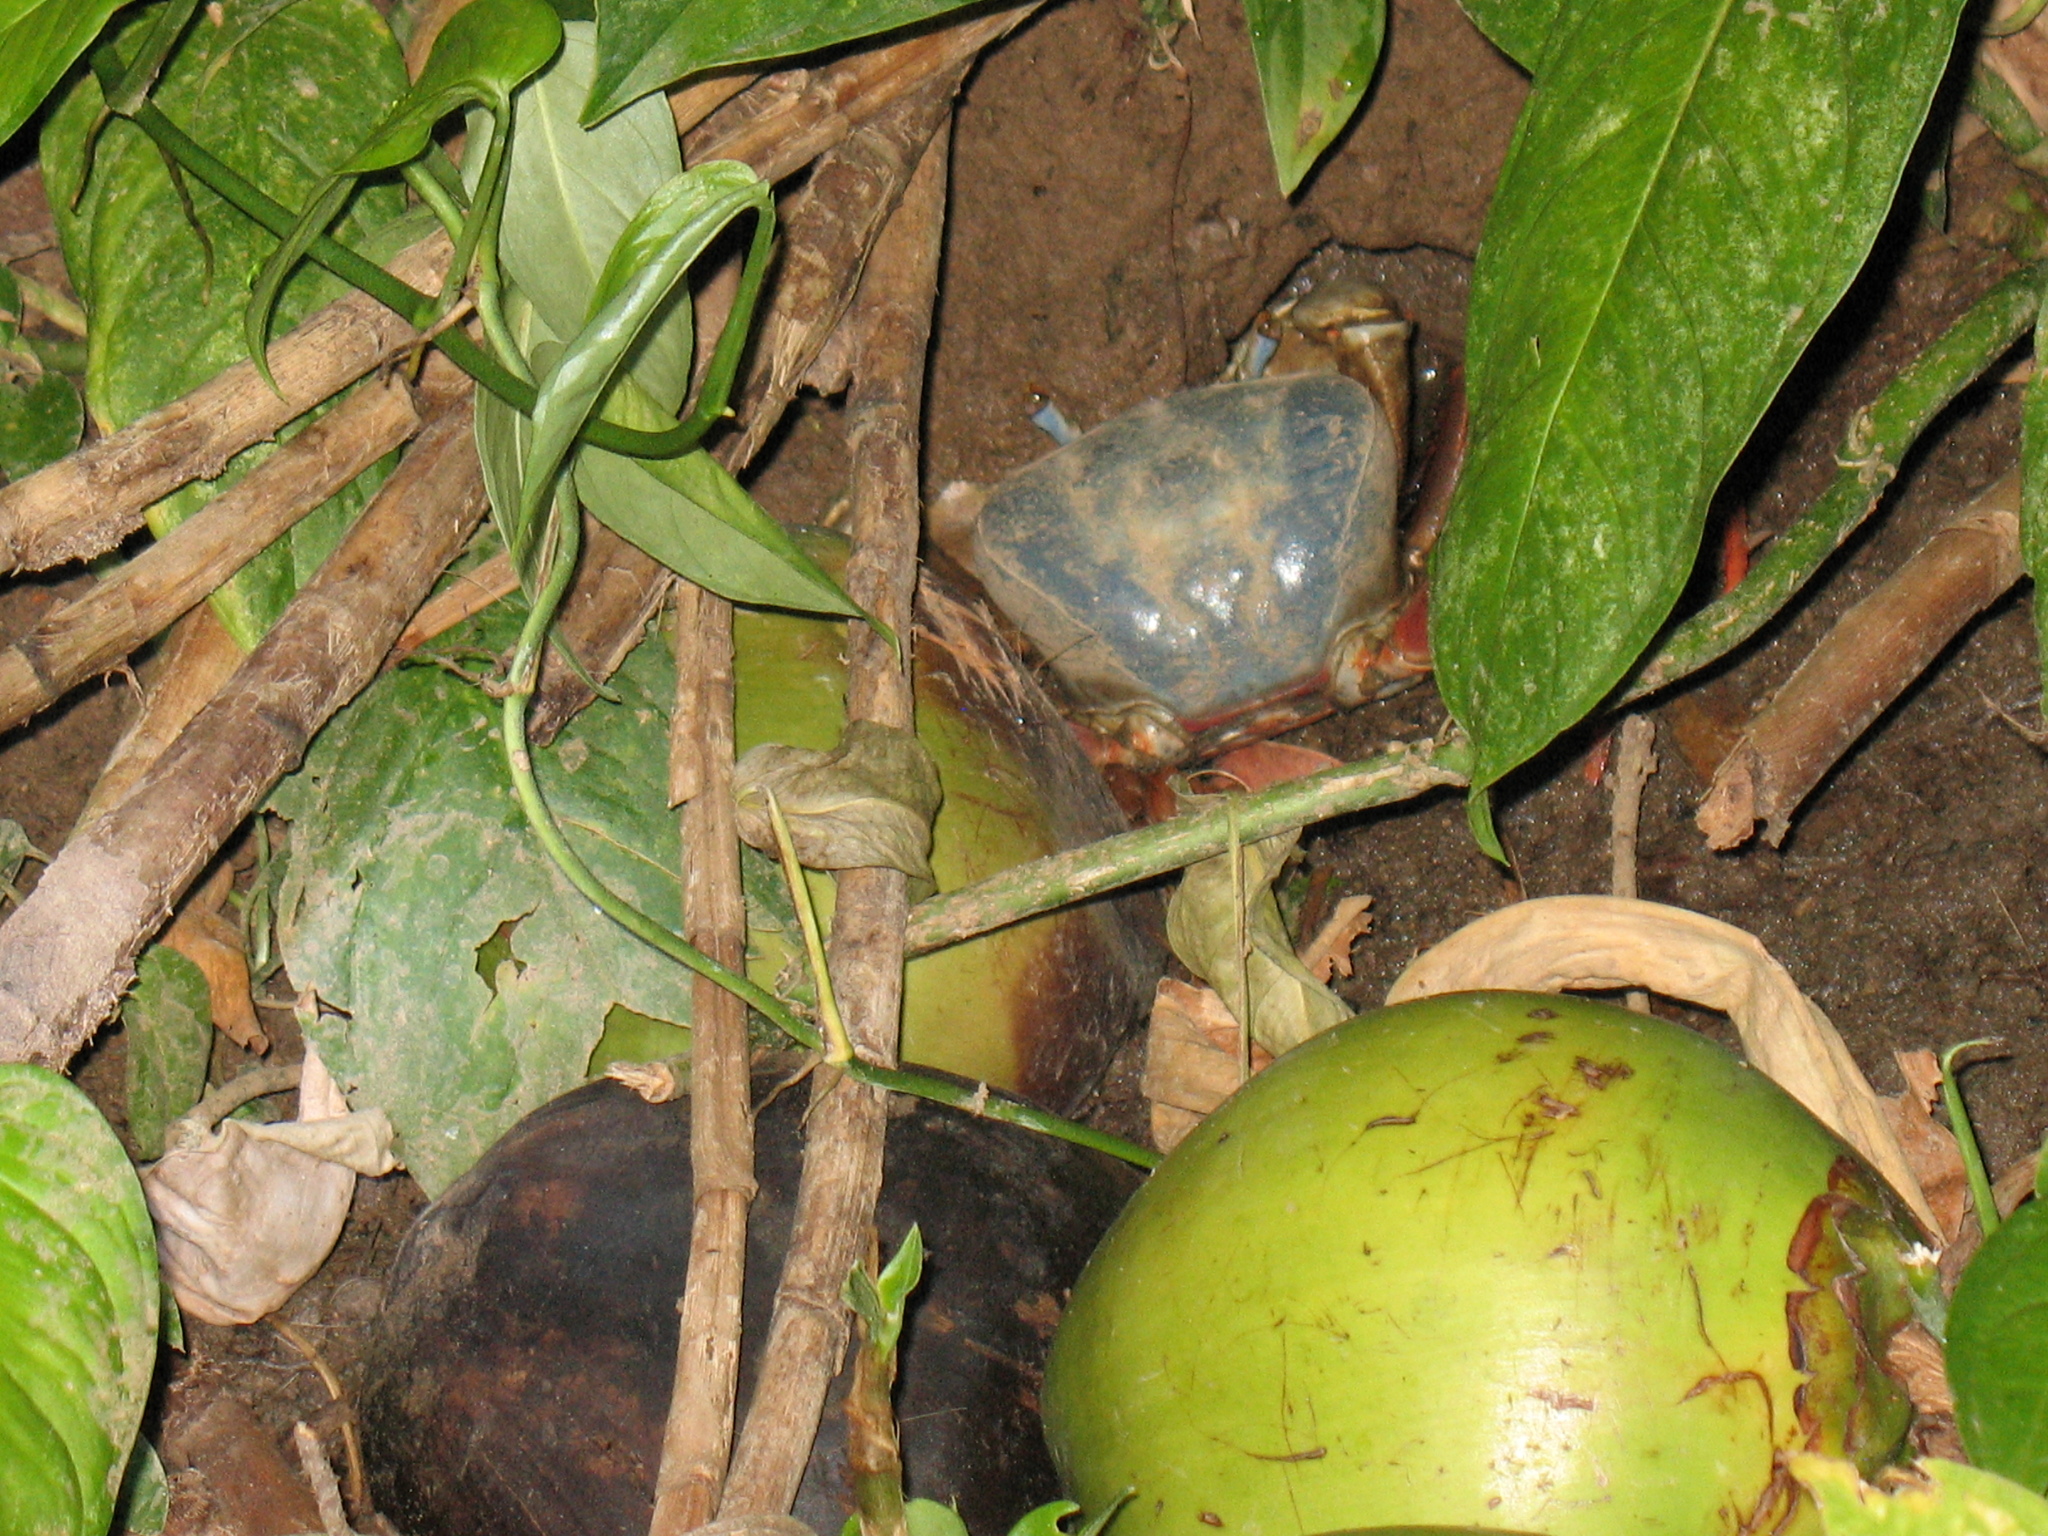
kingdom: Animalia
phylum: Arthropoda
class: Malacostraca
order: Decapoda
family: Gecarcinidae
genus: Cardisoma
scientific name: Cardisoma crassum
